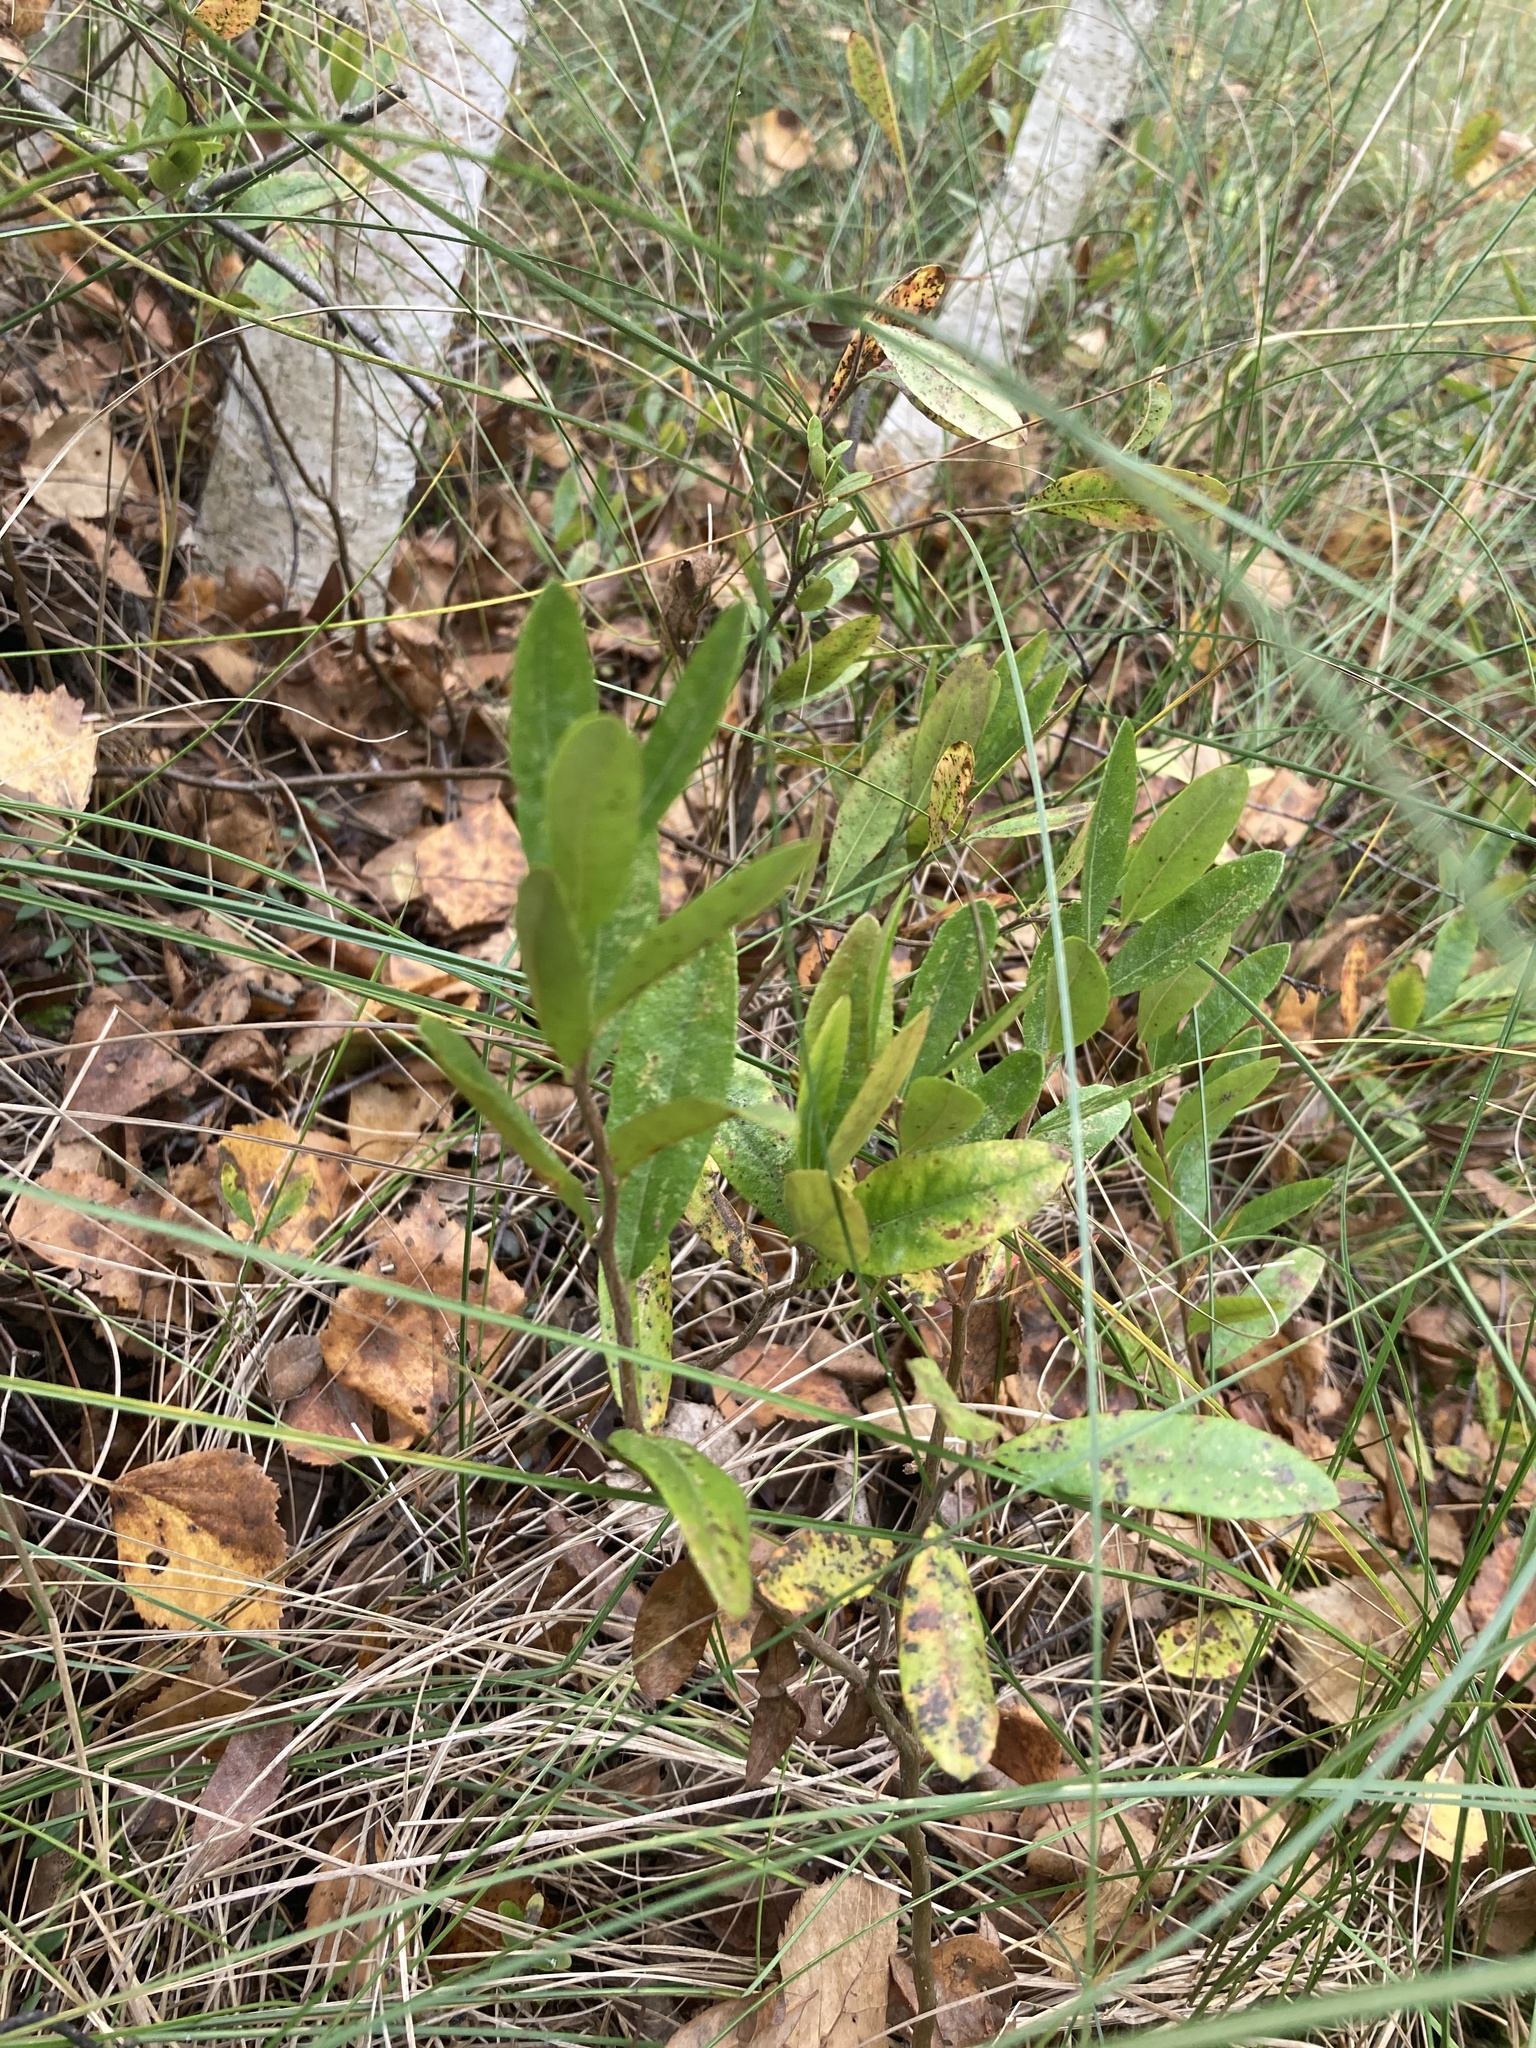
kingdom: Plantae
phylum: Tracheophyta
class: Magnoliopsida
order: Ericales
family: Ericaceae
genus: Chamaedaphne
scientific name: Chamaedaphne calyculata
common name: Leatherleaf
